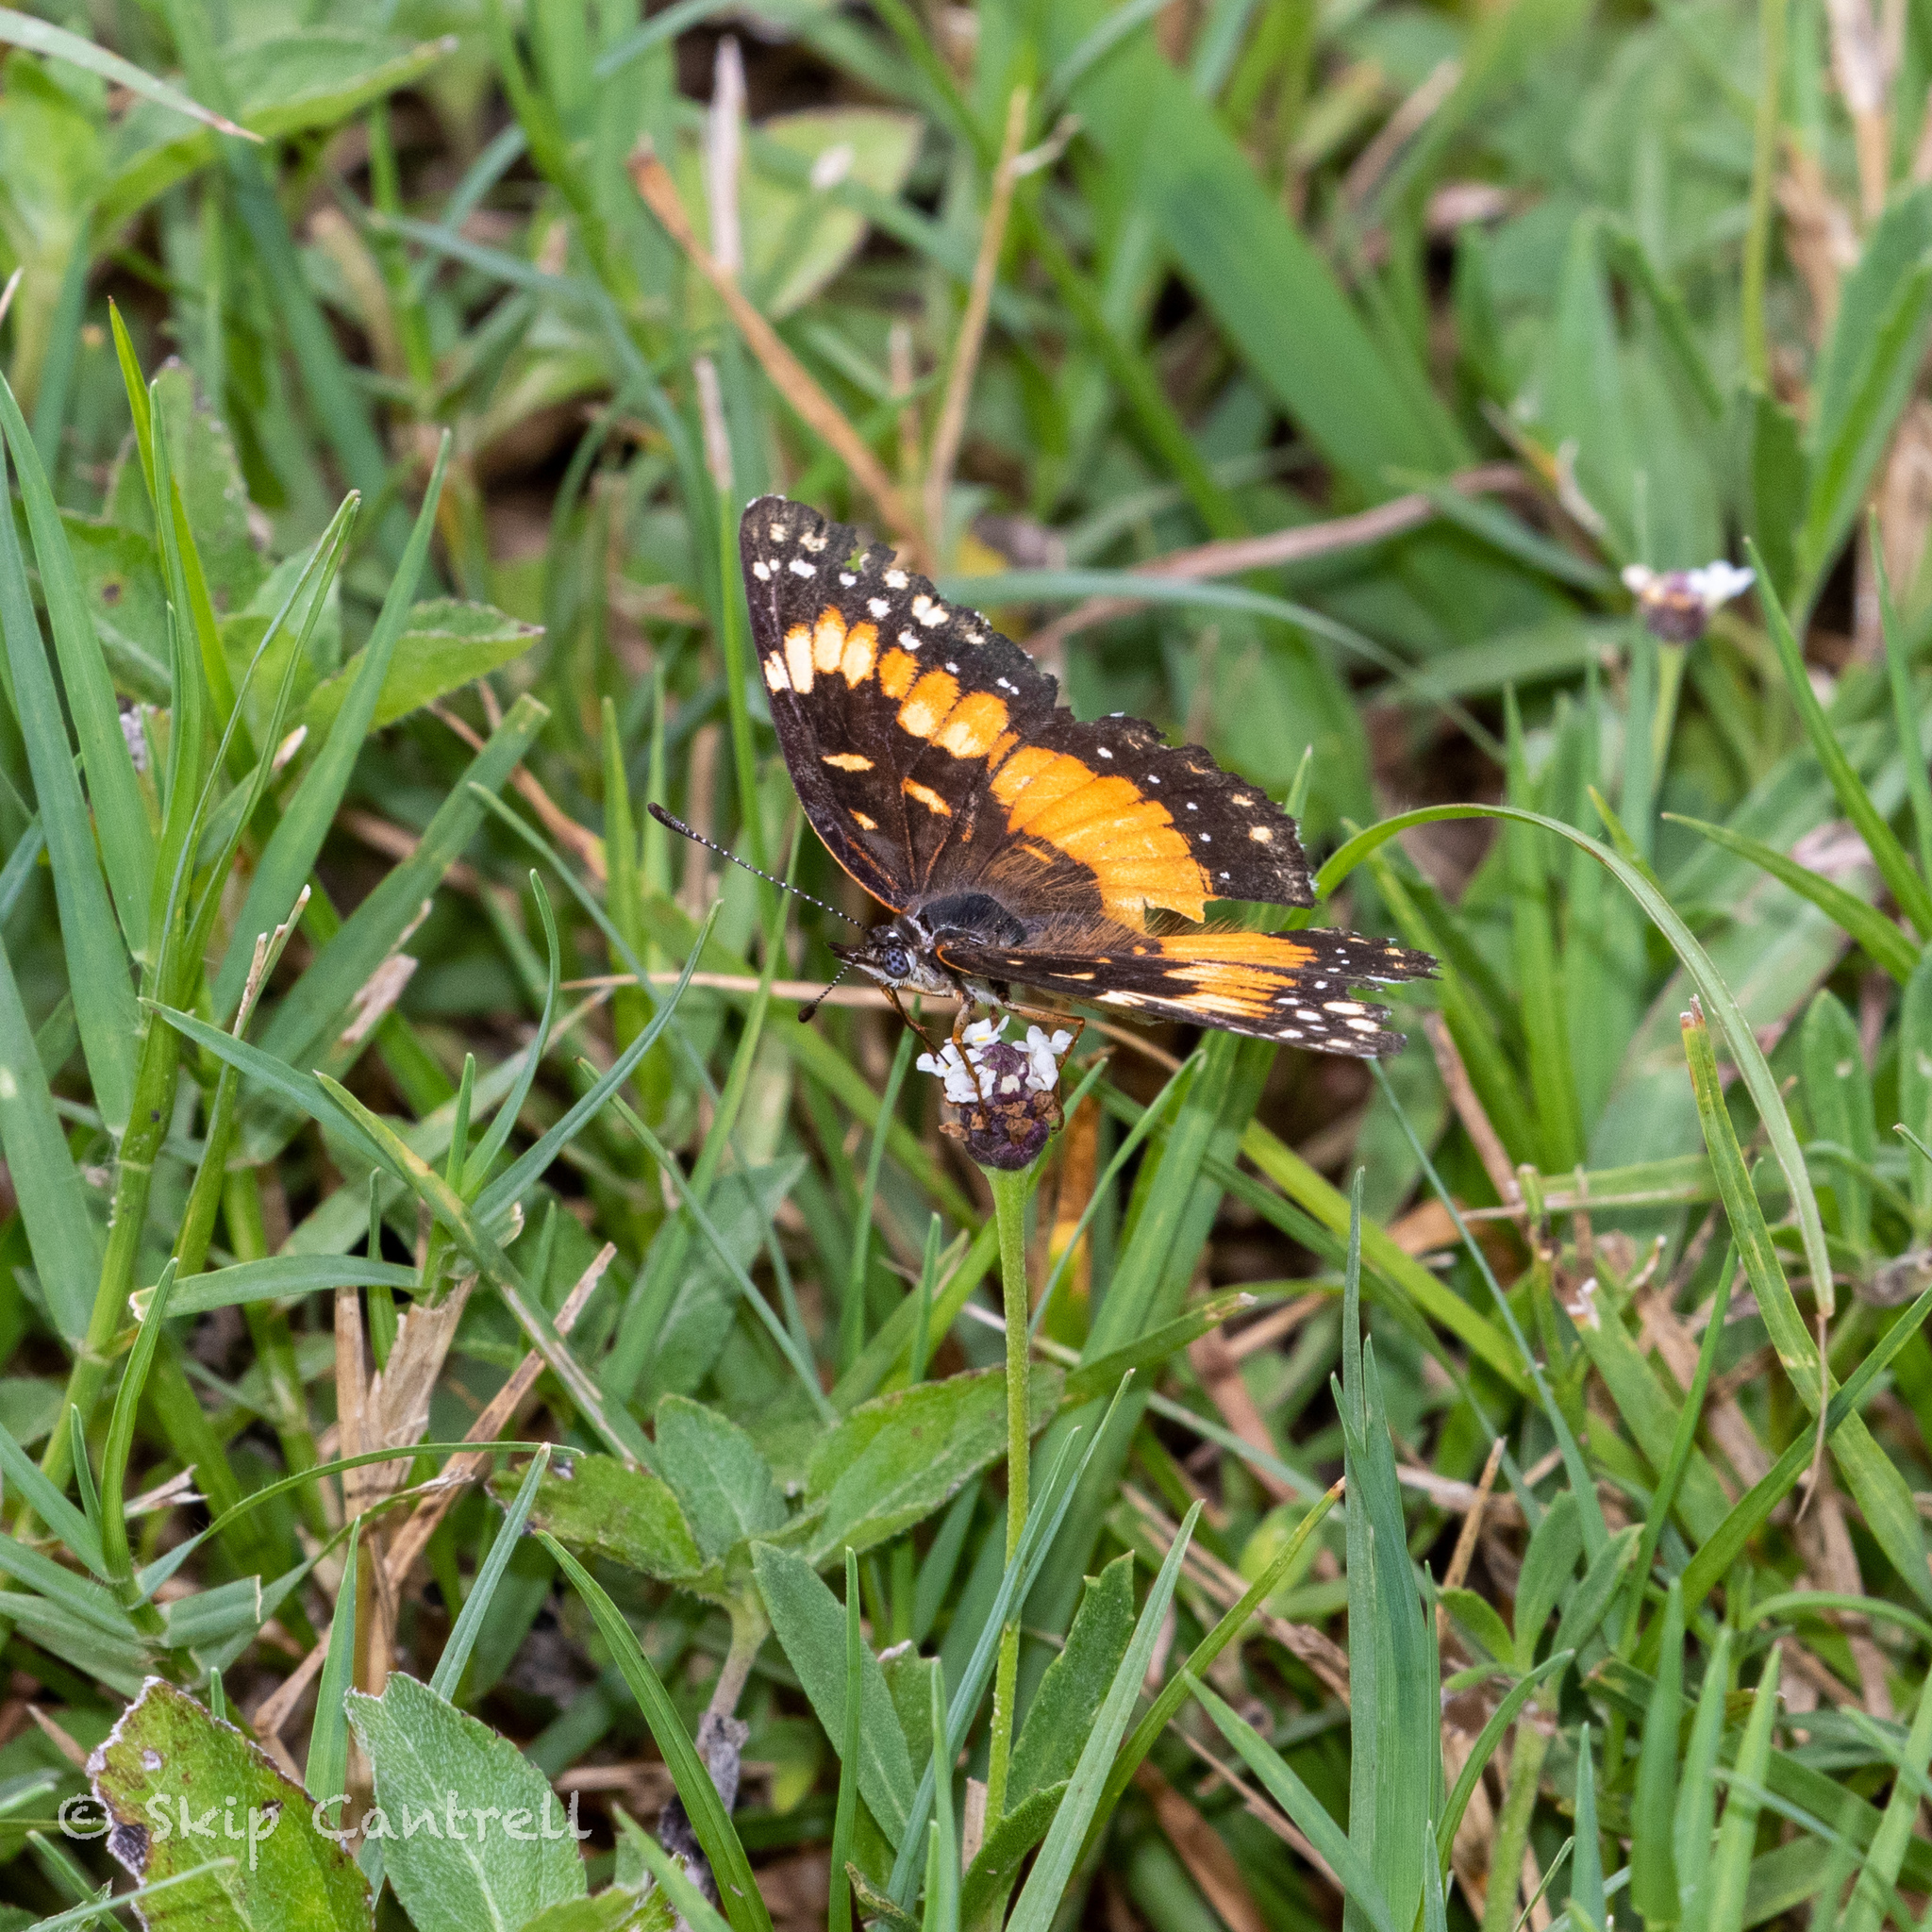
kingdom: Animalia
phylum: Arthropoda
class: Insecta
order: Lepidoptera
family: Nymphalidae
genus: Chlosyne
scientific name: Chlosyne lacinia
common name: Bordered patch
